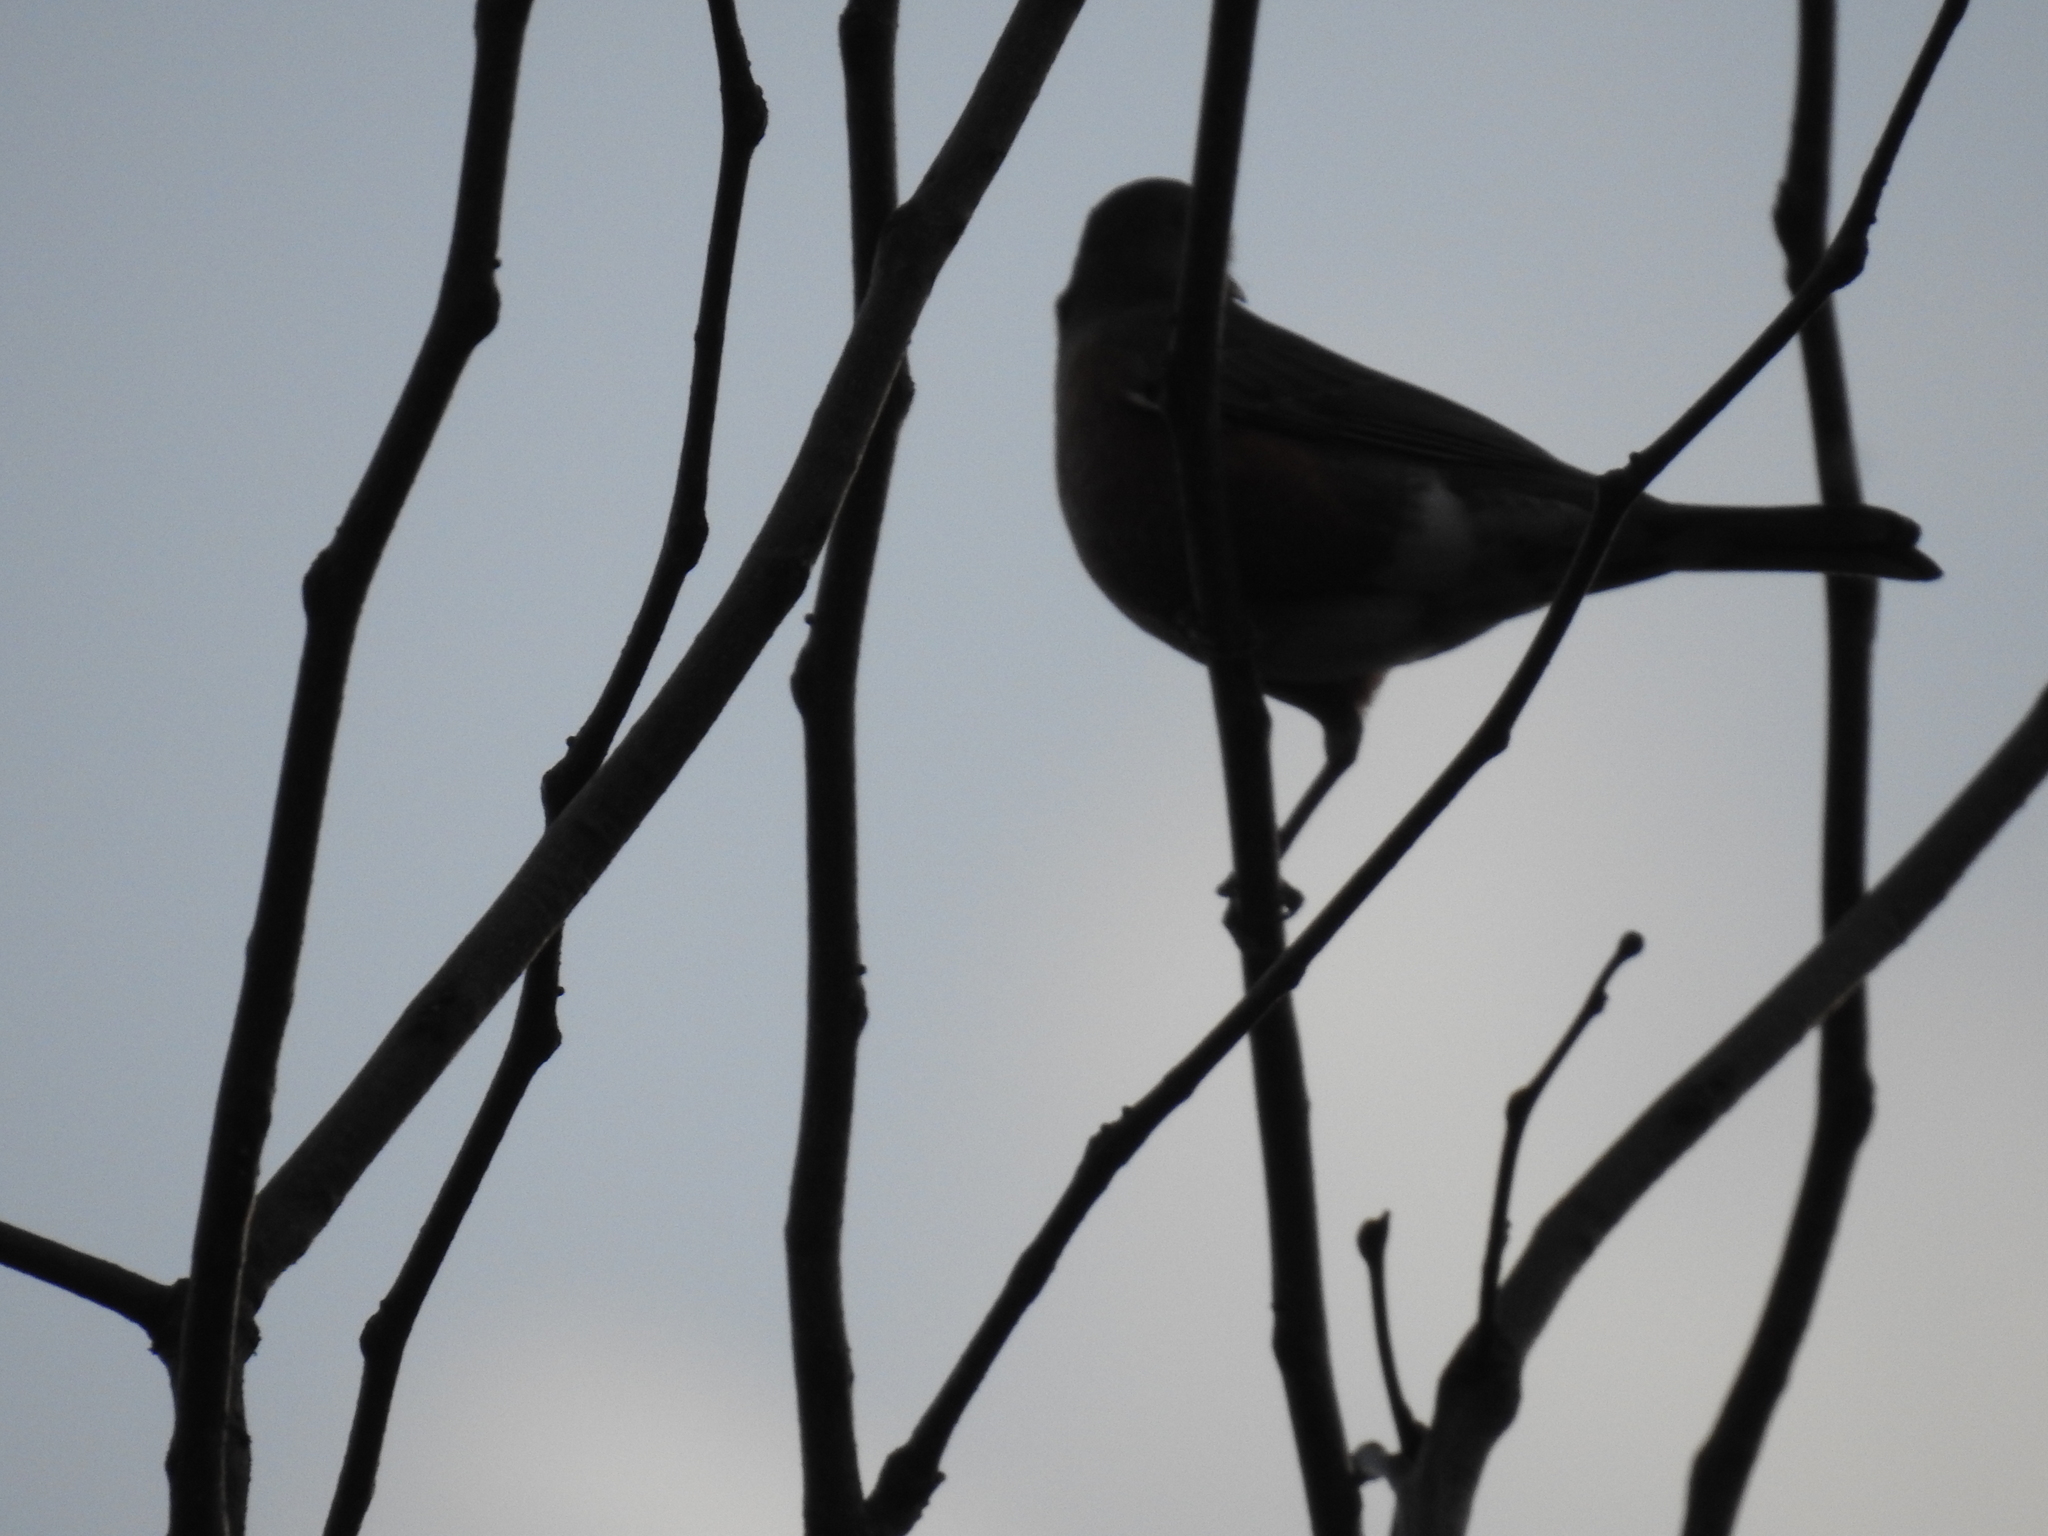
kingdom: Animalia
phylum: Chordata
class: Aves
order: Passeriformes
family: Turdidae
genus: Turdus
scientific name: Turdus migratorius
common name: American robin
